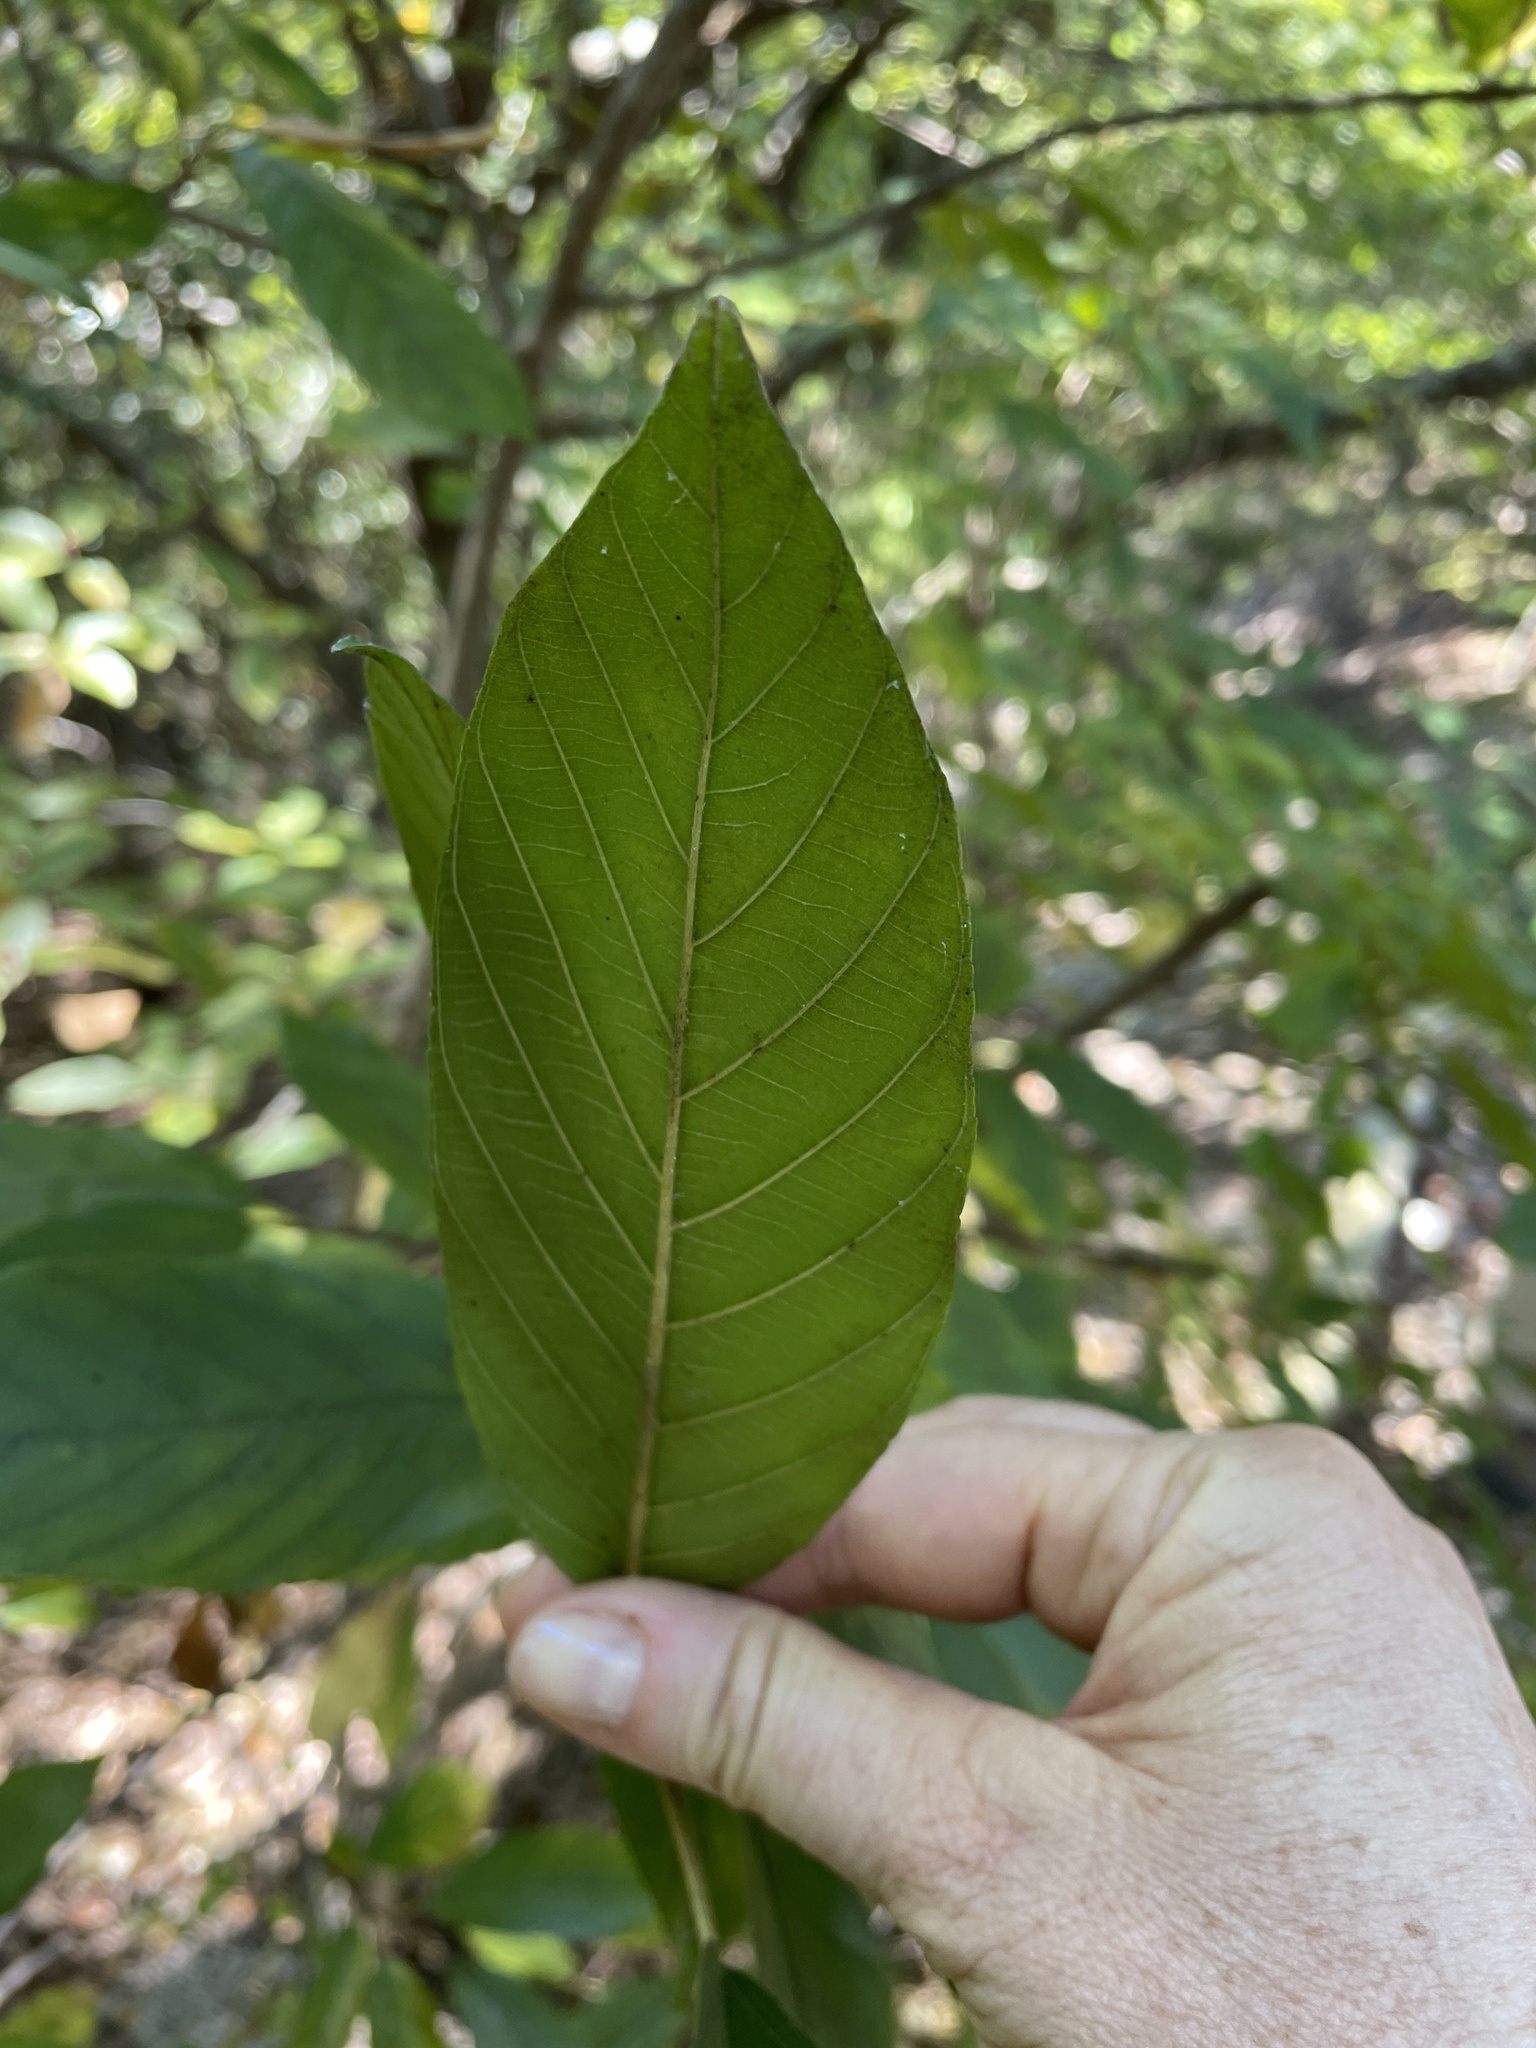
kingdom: Plantae
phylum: Tracheophyta
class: Magnoliopsida
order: Rosales
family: Rhamnaceae
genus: Frangula
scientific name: Frangula caroliniana
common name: Carolina buckthorn
